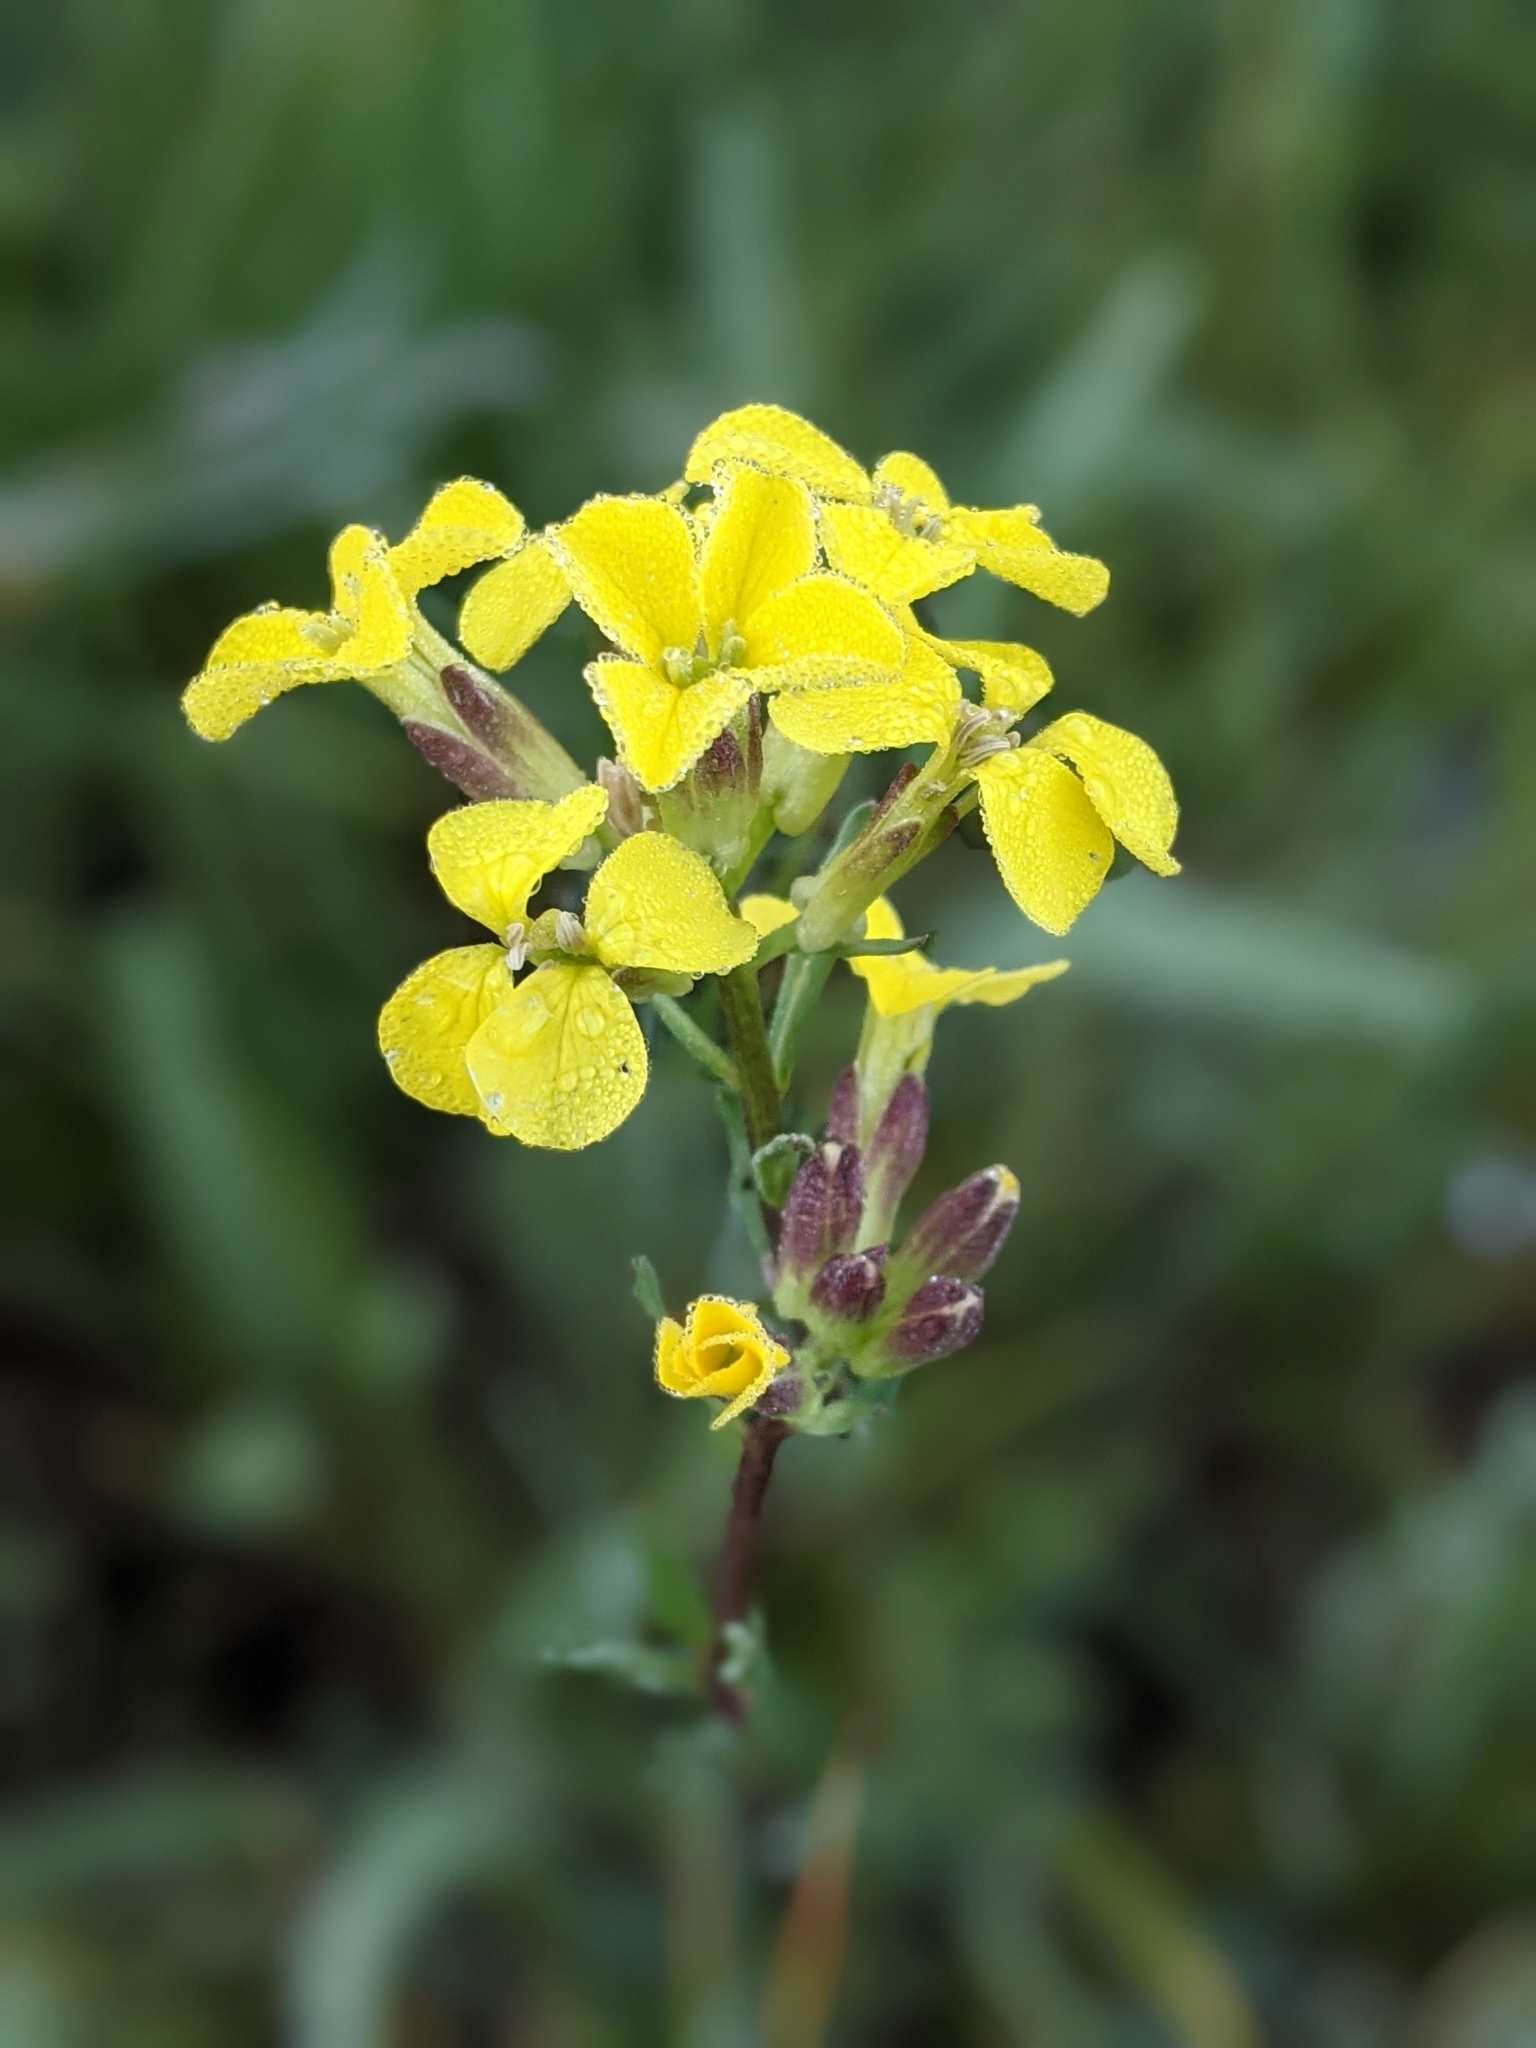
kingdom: Plantae
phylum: Tracheophyta
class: Magnoliopsida
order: Brassicales
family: Brassicaceae
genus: Erysimum
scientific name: Erysimum capitatum
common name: Western wallflower
